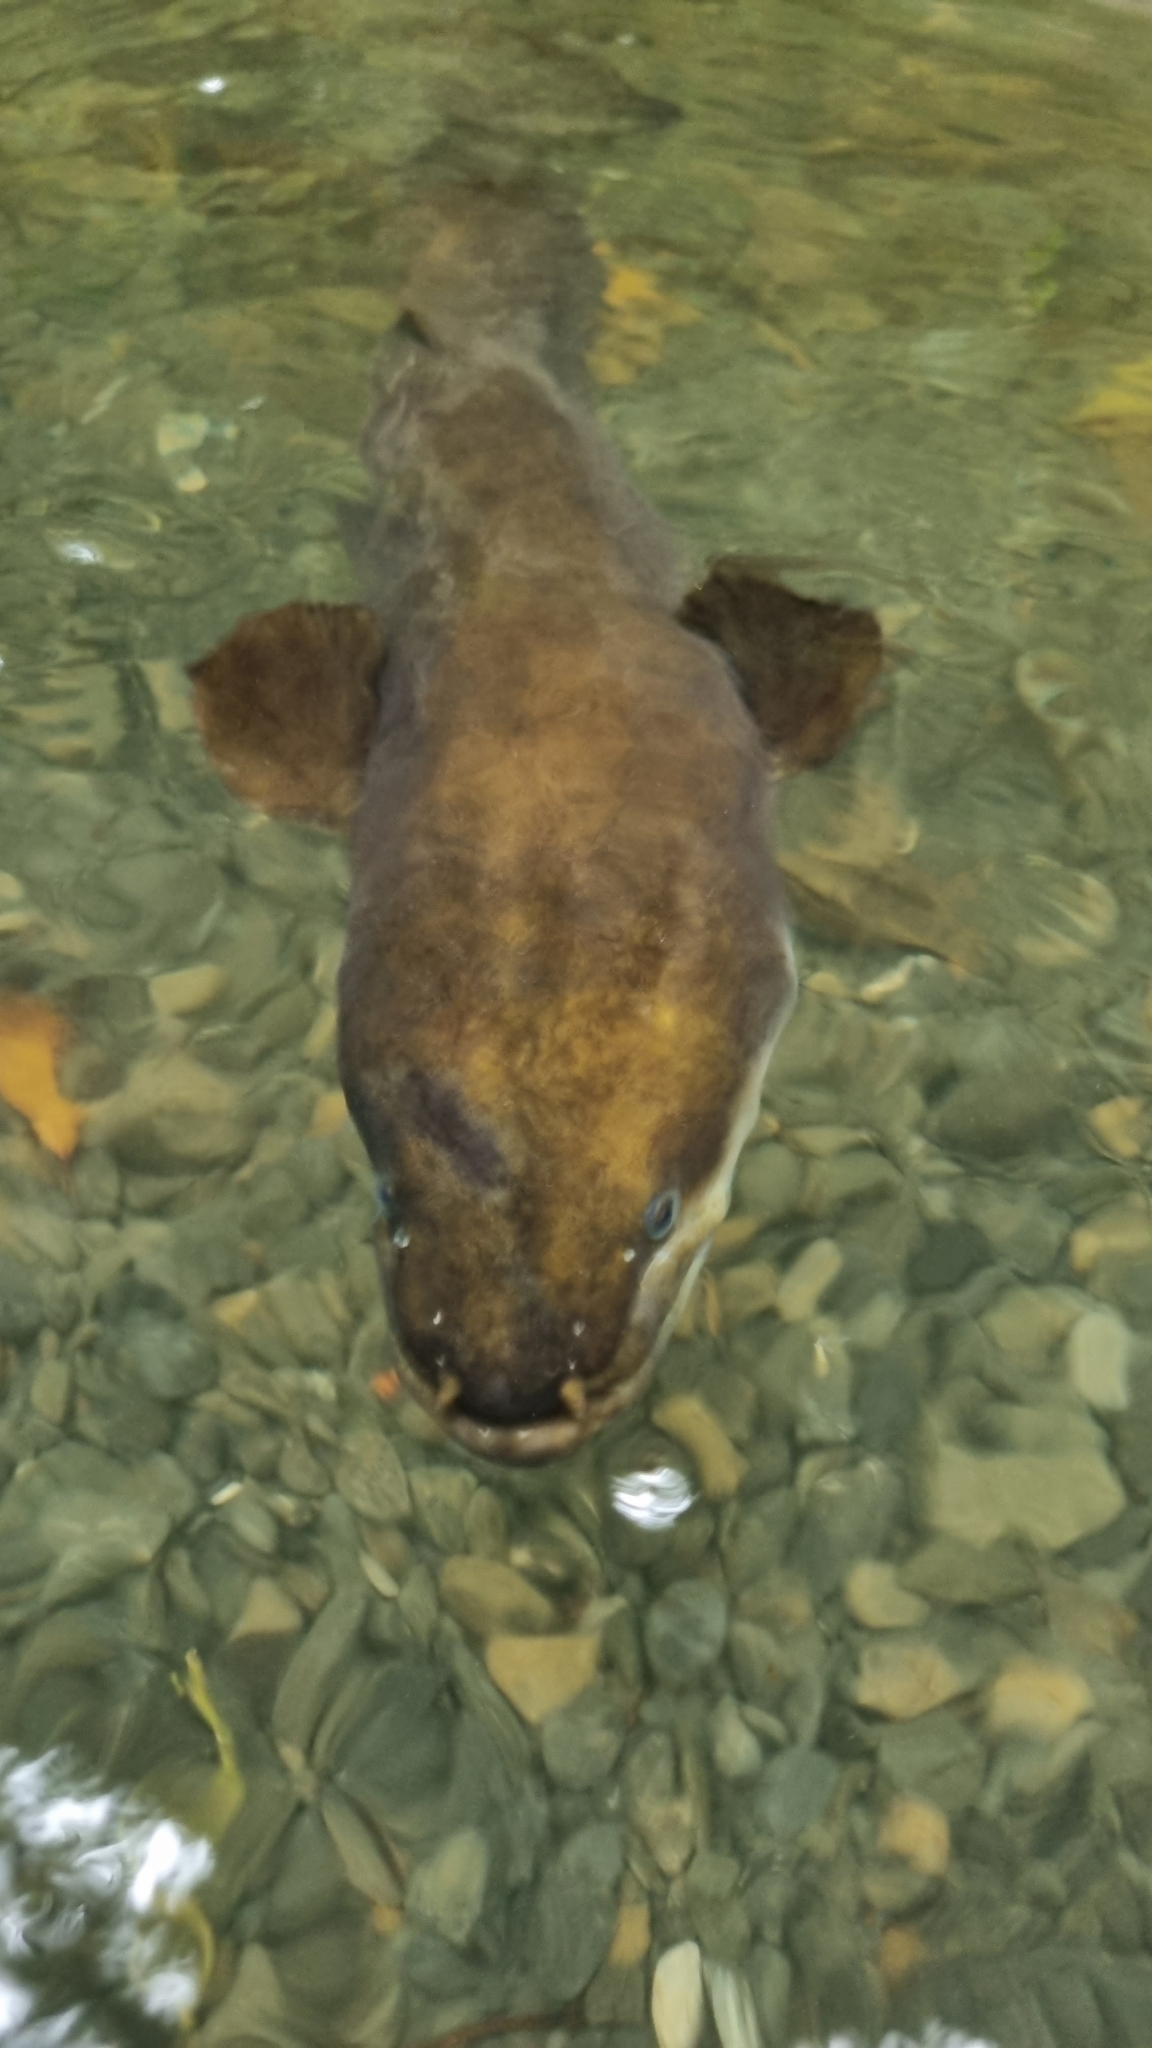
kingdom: Animalia
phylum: Chordata
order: Anguilliformes
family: Anguillidae
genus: Anguilla
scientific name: Anguilla dieffenbachii
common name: New zealand longfin eel
